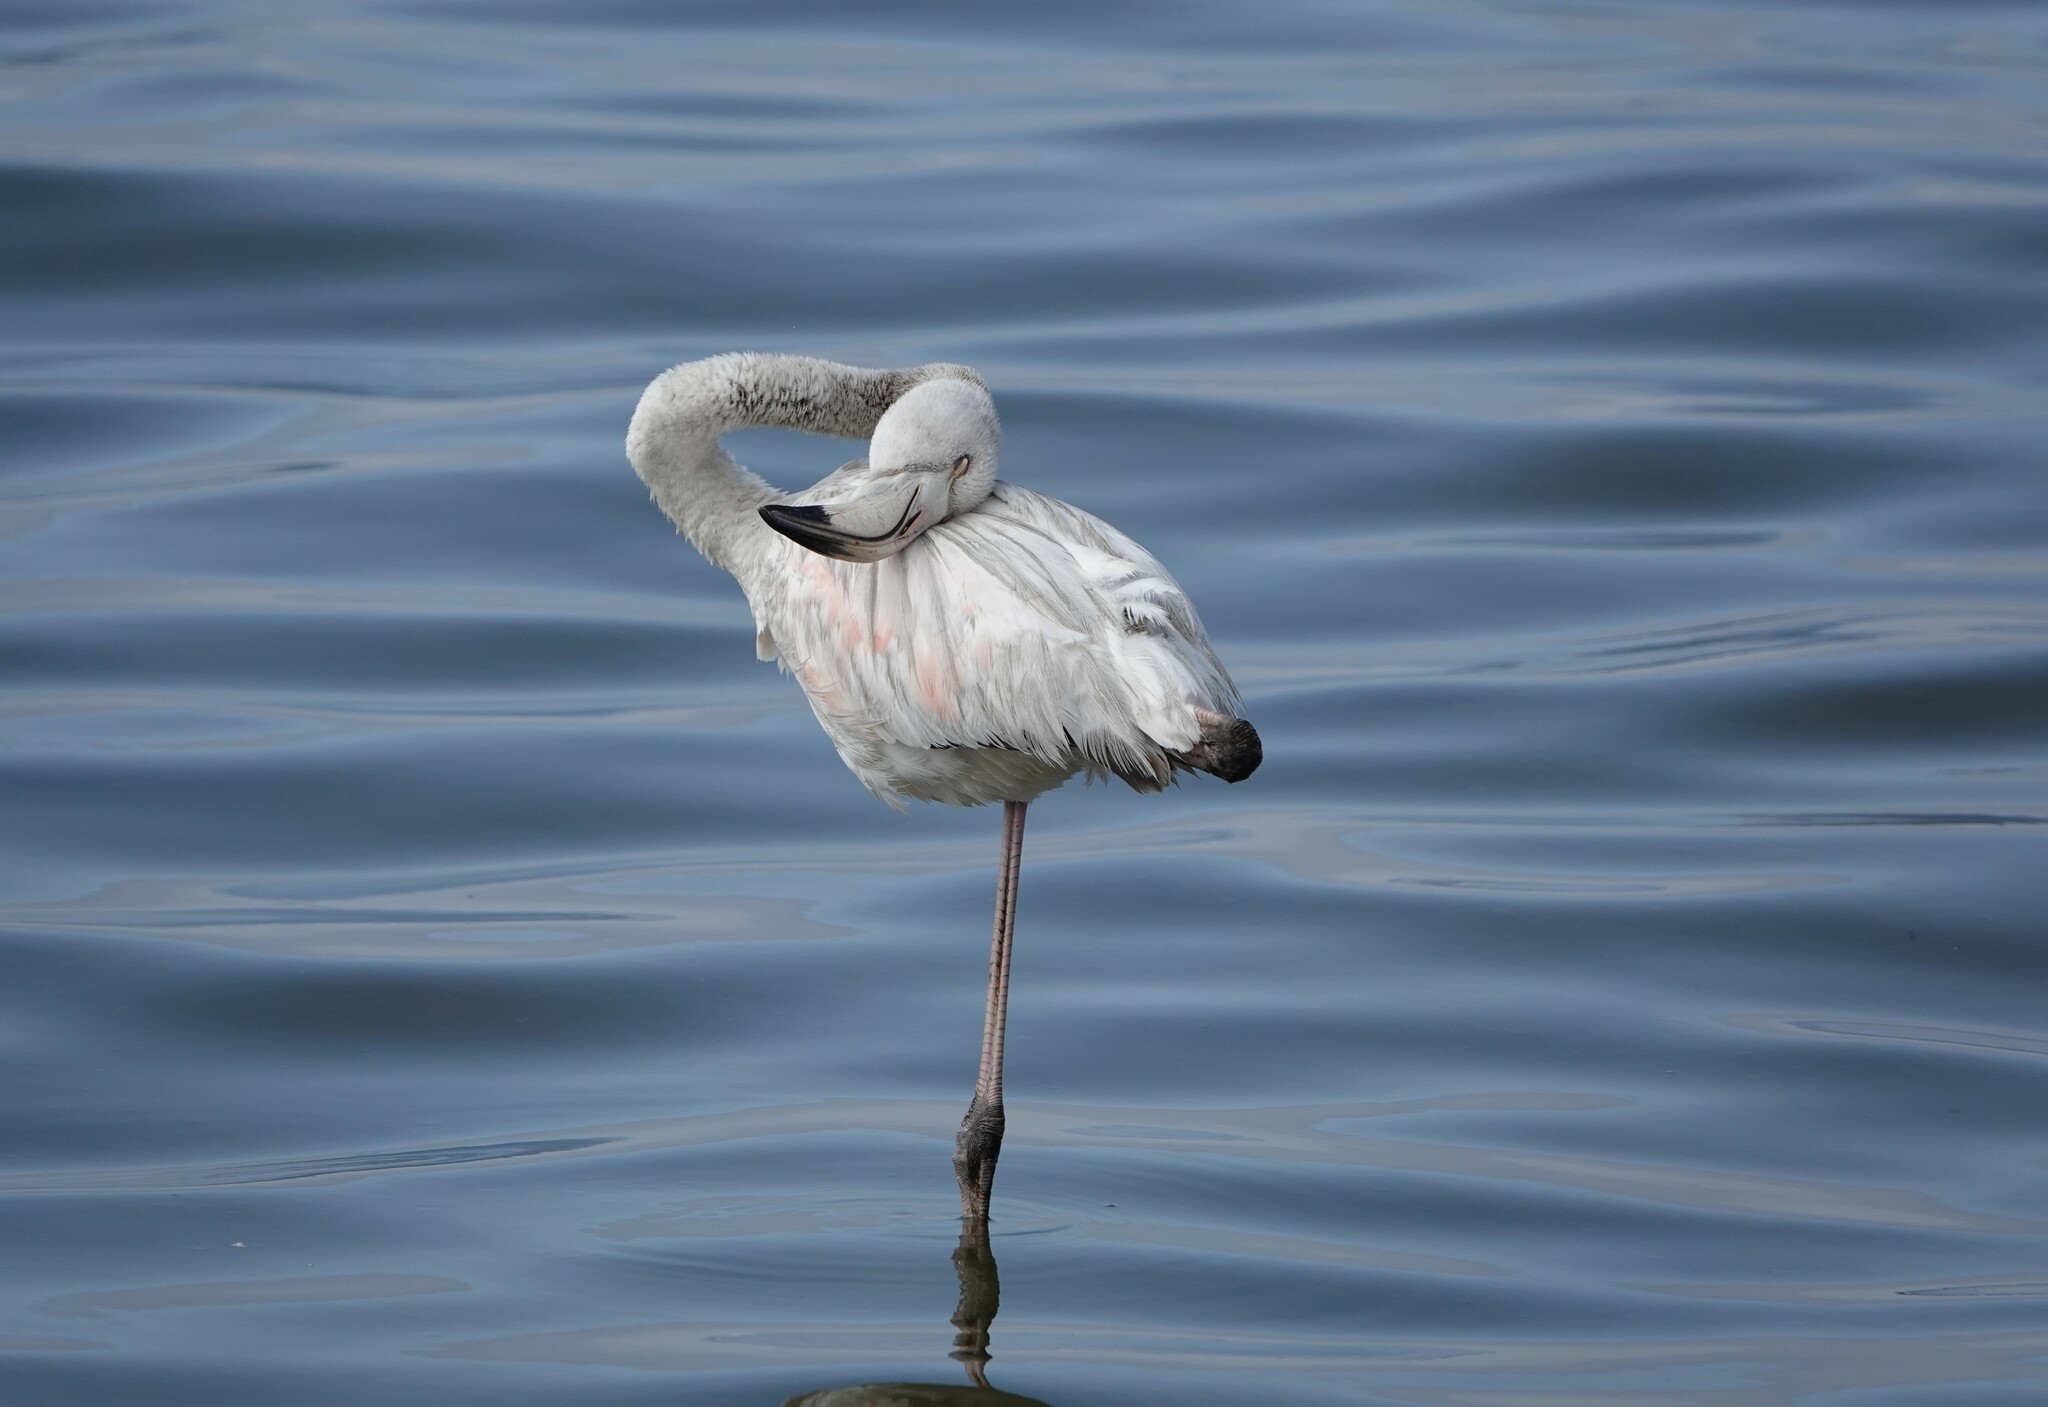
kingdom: Animalia
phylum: Chordata
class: Aves
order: Phoenicopteriformes
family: Phoenicopteridae
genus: Phoenicopterus
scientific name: Phoenicopterus roseus
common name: Greater flamingo
